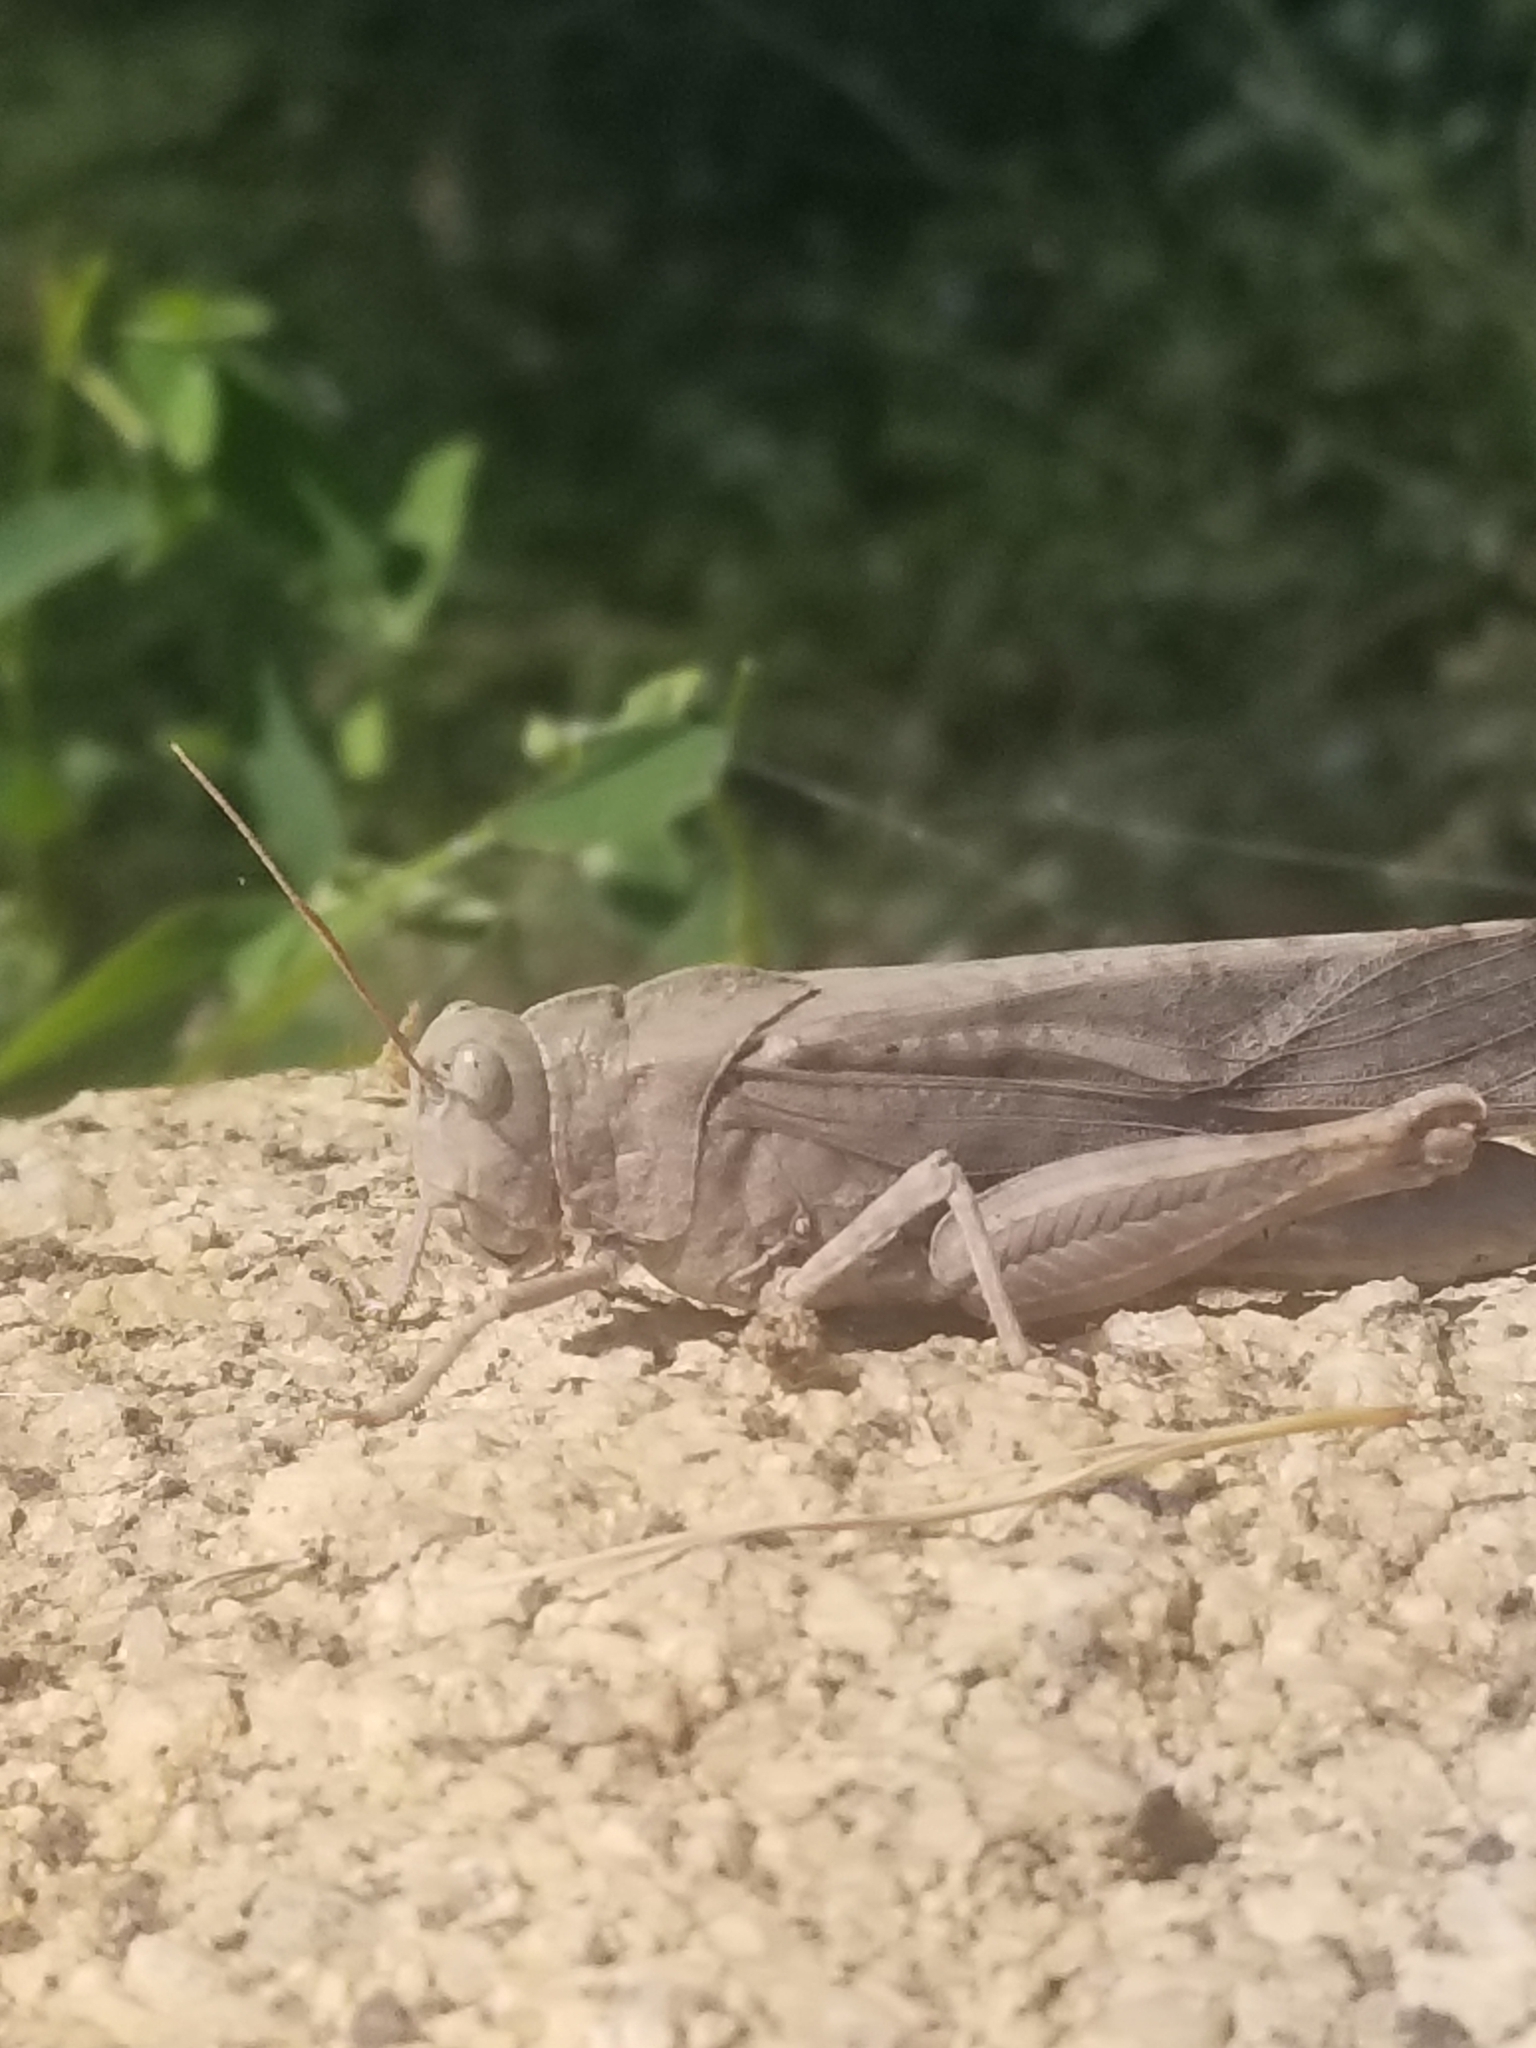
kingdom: Animalia
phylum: Arthropoda
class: Insecta
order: Orthoptera
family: Acrididae
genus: Dissosteira
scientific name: Dissosteira carolina
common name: Carolina grasshopper
